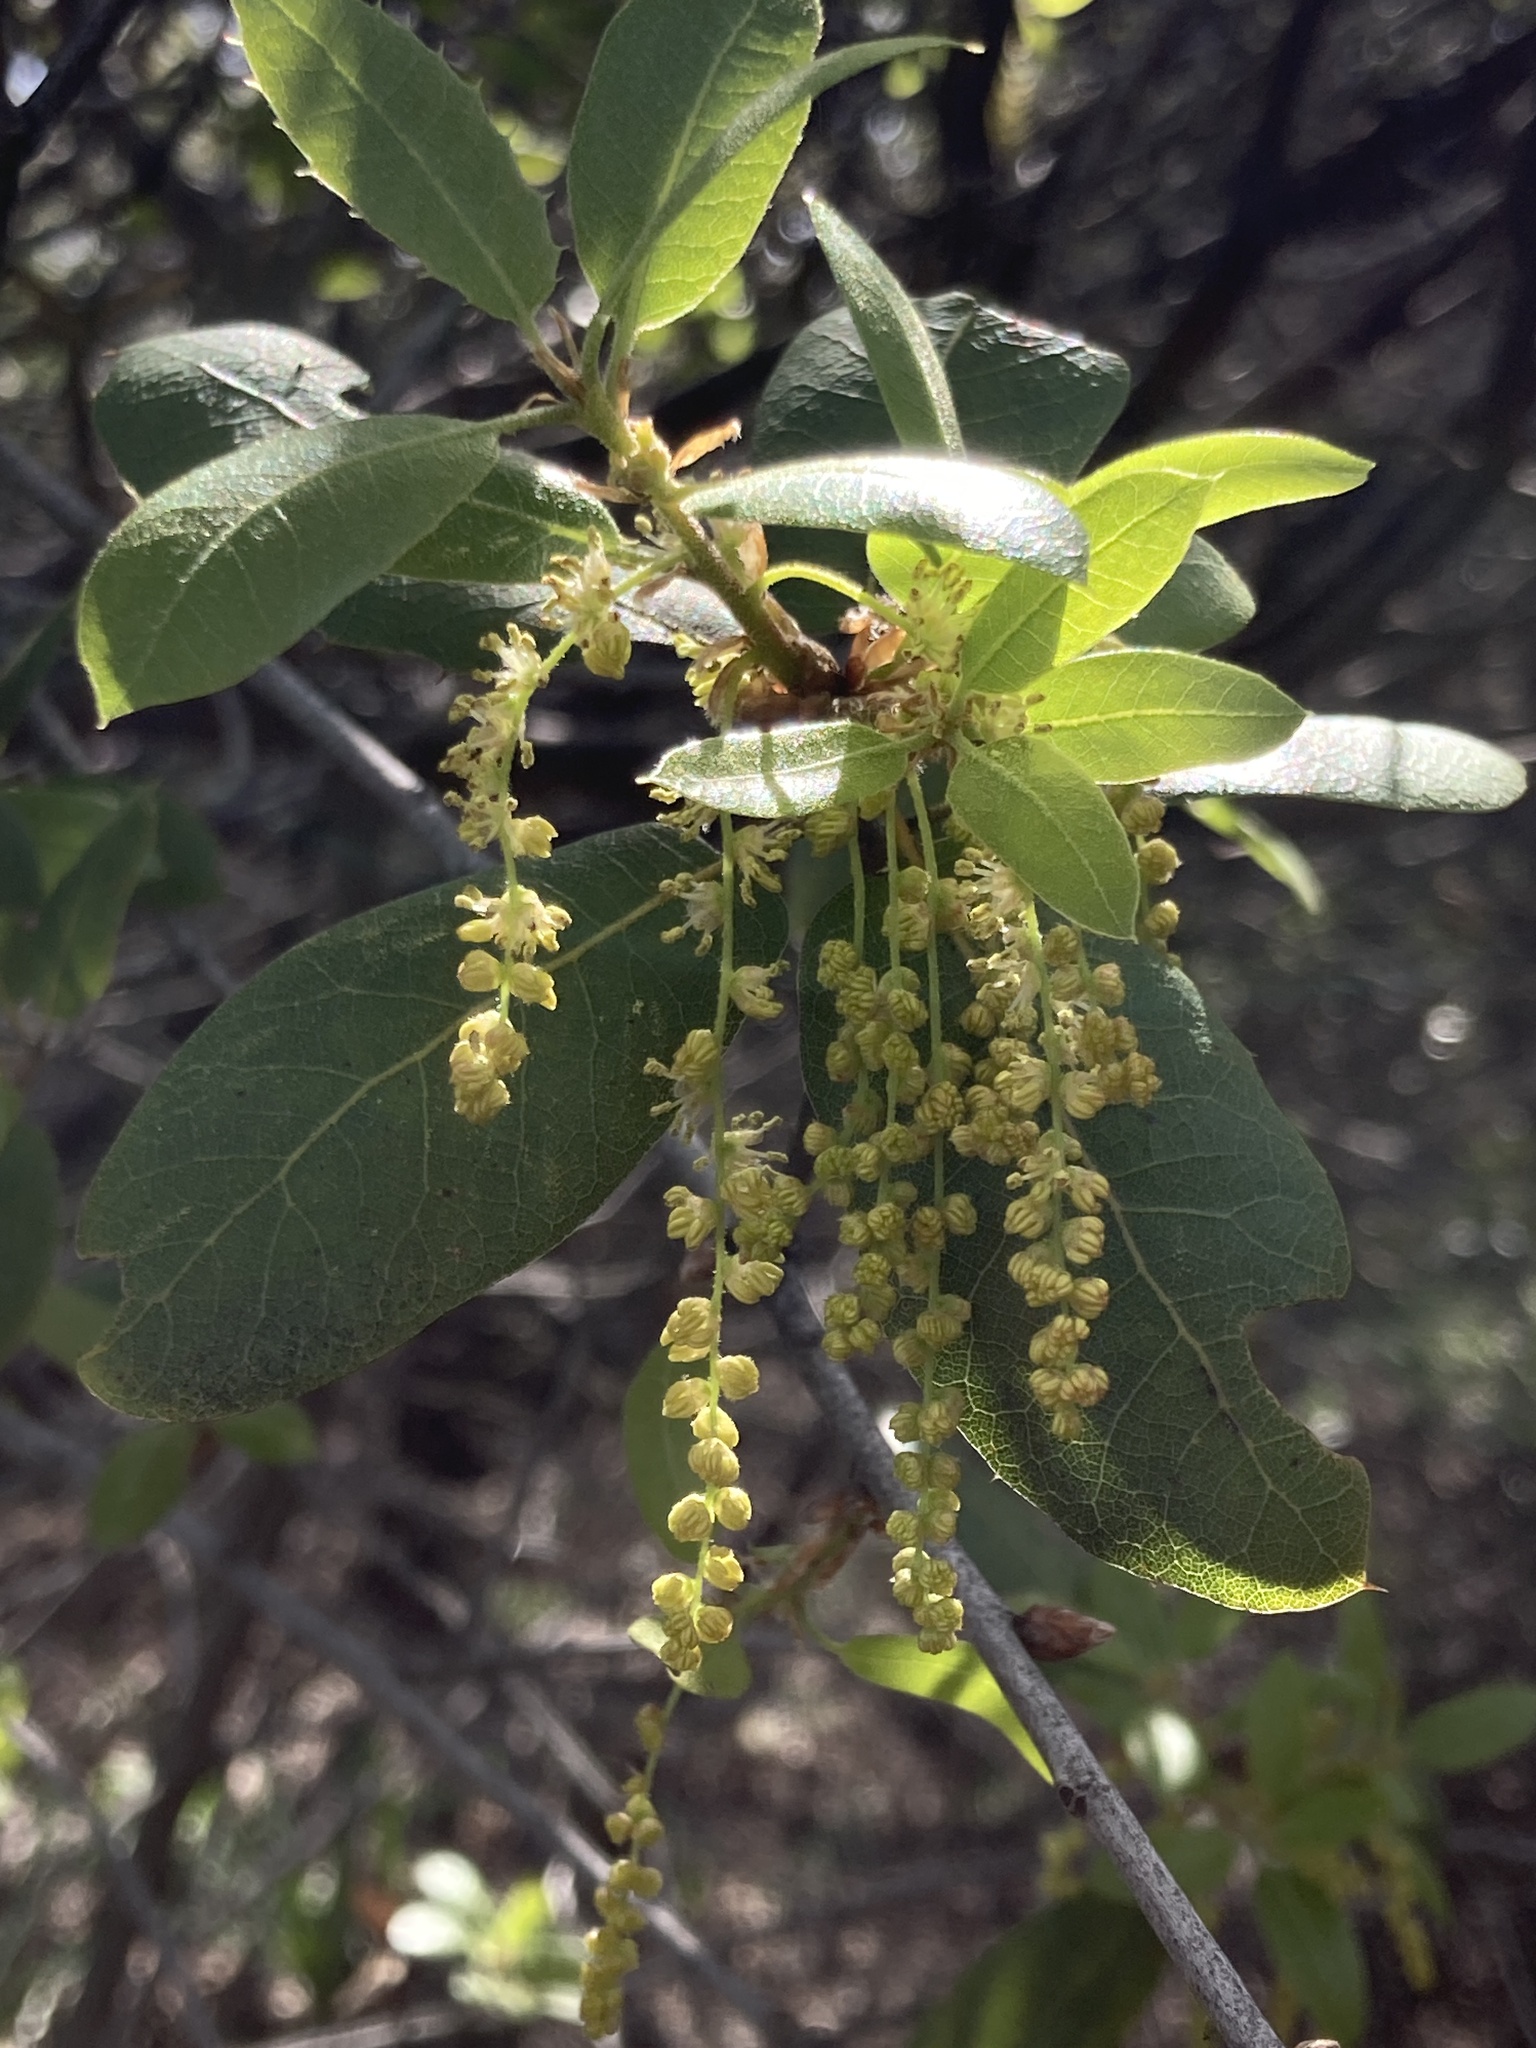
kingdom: Plantae
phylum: Tracheophyta
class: Magnoliopsida
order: Fagales
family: Fagaceae
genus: Quercus
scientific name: Quercus wislizeni
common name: Interior live oak
